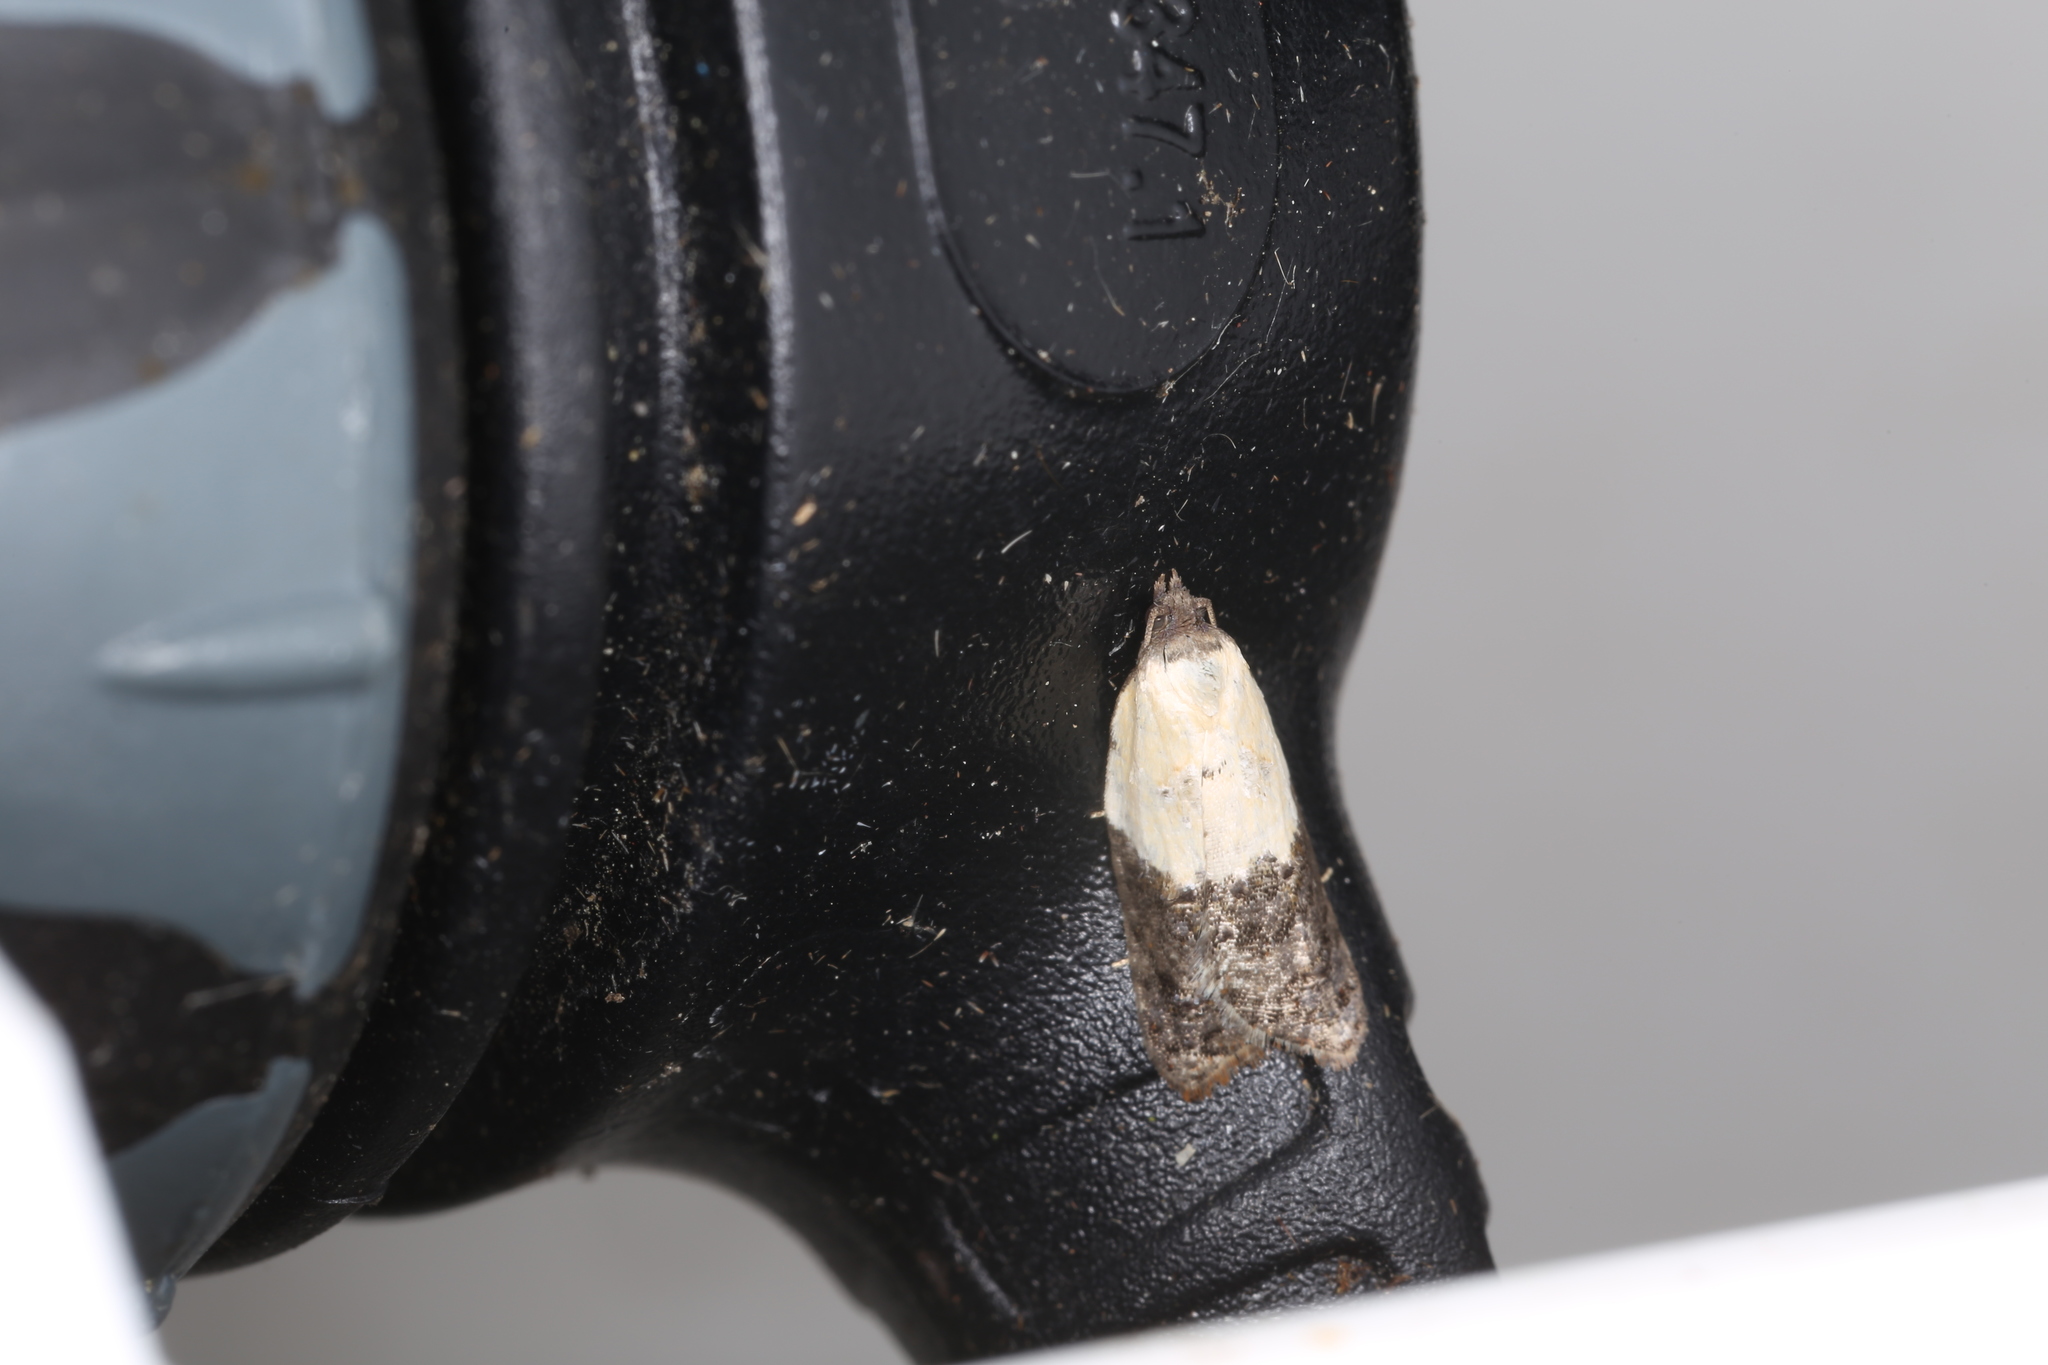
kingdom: Animalia
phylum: Arthropoda
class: Insecta
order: Lepidoptera
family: Tortricidae
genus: Acleris
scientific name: Acleris variegana
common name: Garden rose tortrix
